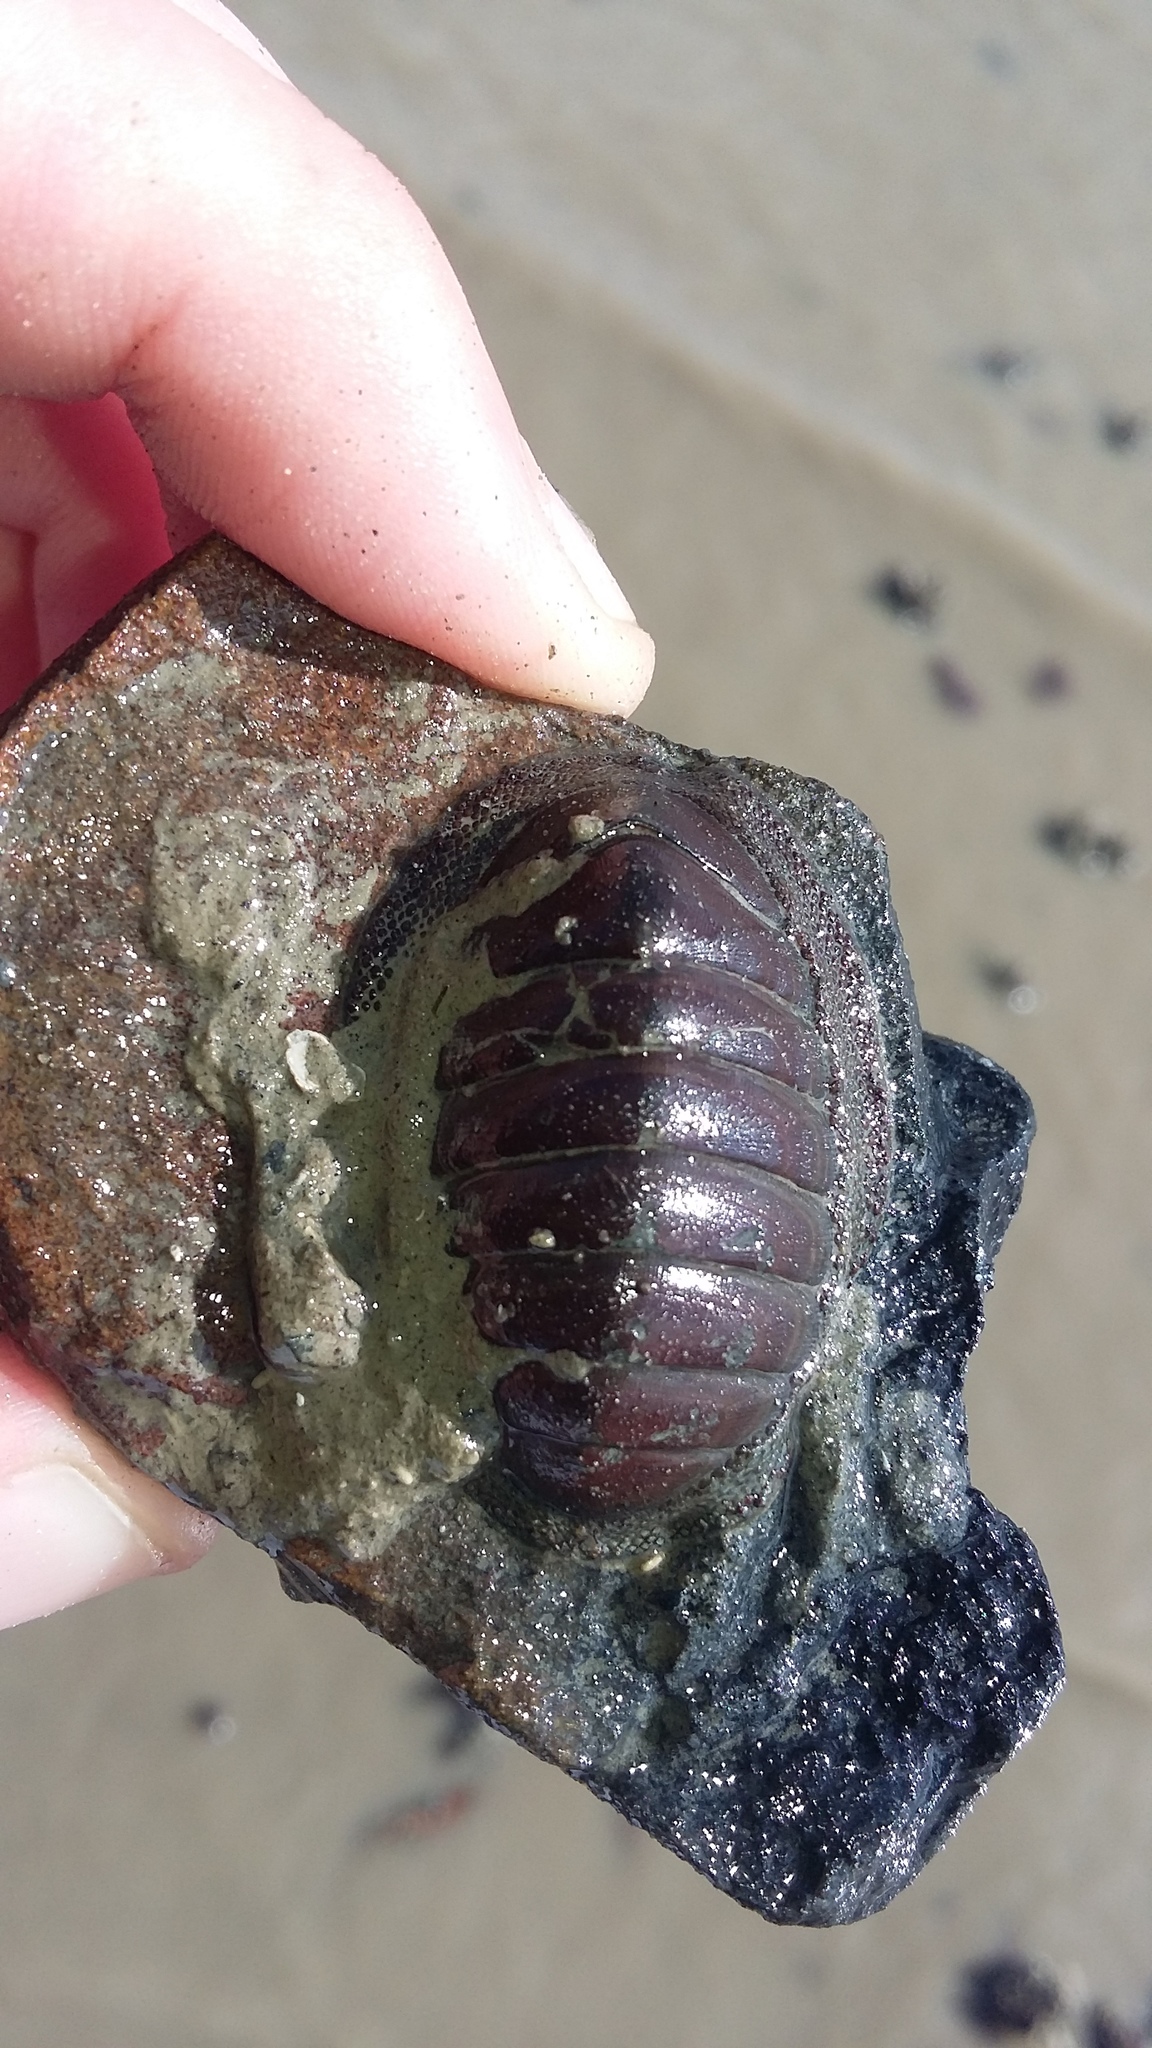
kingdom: Animalia
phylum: Mollusca
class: Polyplacophora
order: Chitonida
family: Chitonidae
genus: Chiton
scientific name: Chiton glaucus
